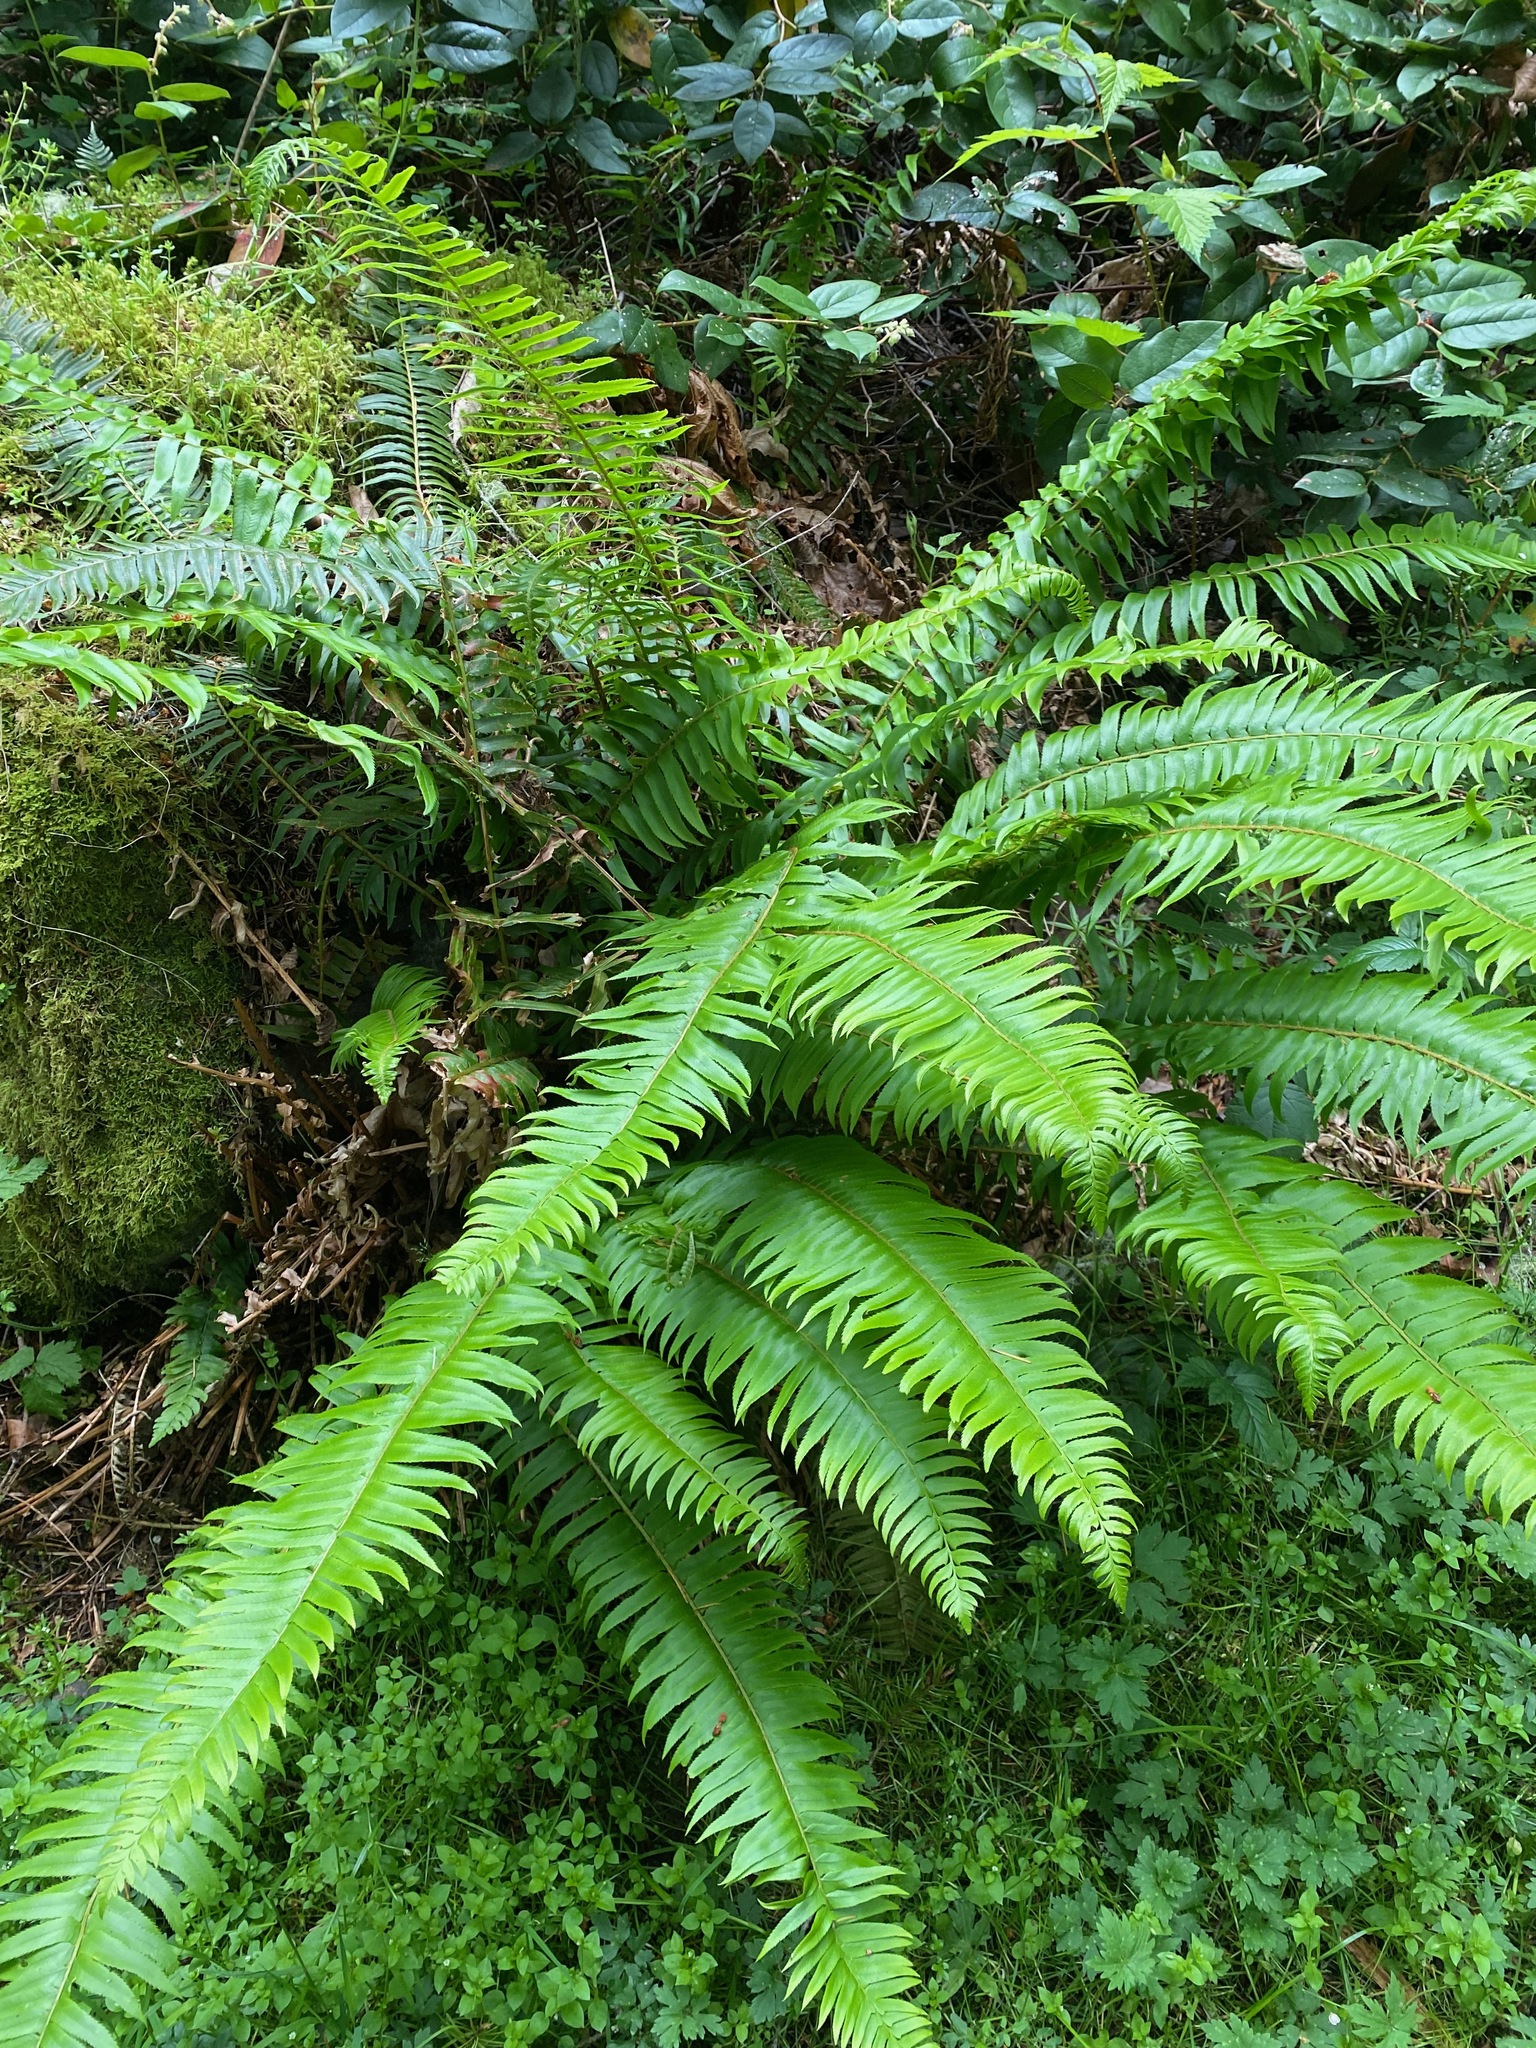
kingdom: Plantae
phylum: Tracheophyta
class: Polypodiopsida
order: Polypodiales
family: Dryopteridaceae
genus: Polystichum
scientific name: Polystichum munitum
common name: Western sword-fern
